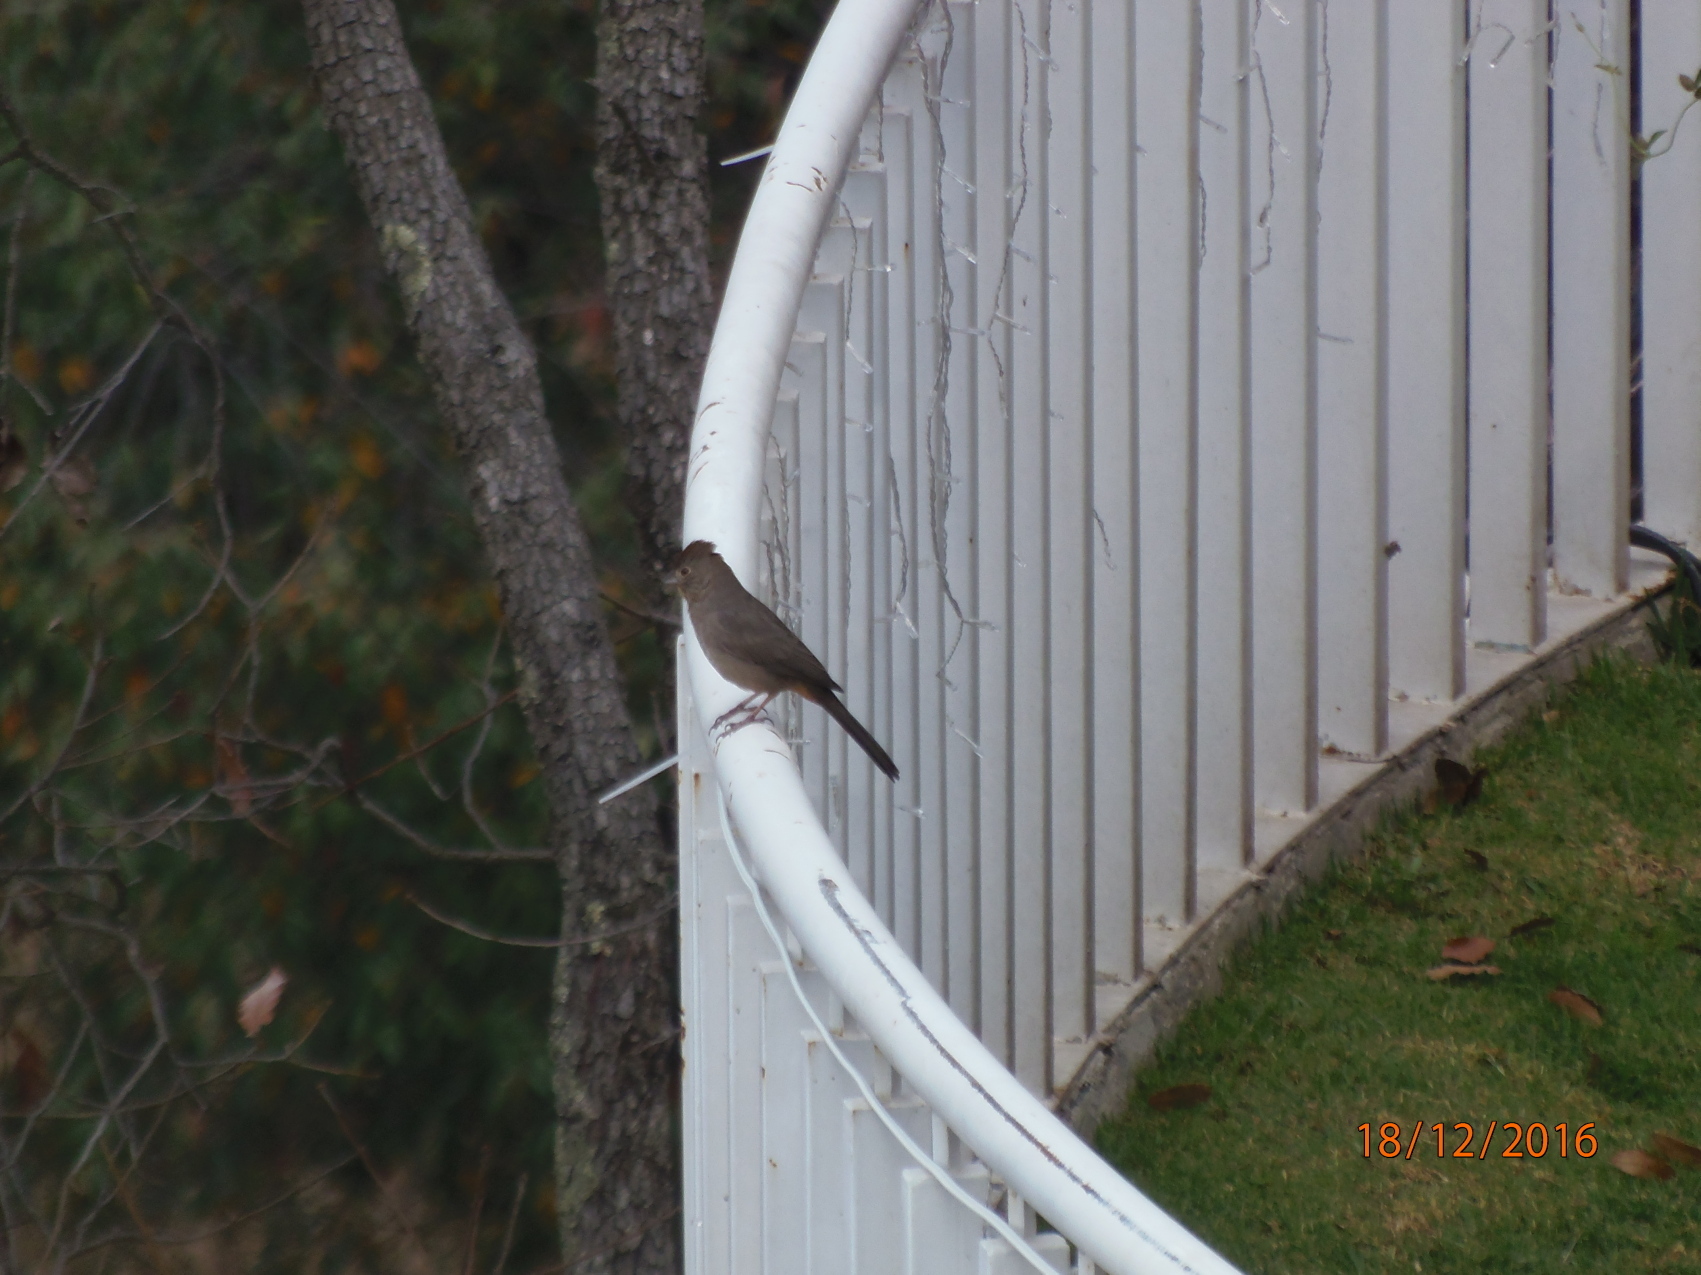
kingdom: Animalia
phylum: Chordata
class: Aves
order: Passeriformes
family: Passerellidae
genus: Melozone
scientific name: Melozone fusca
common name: Canyon towhee
